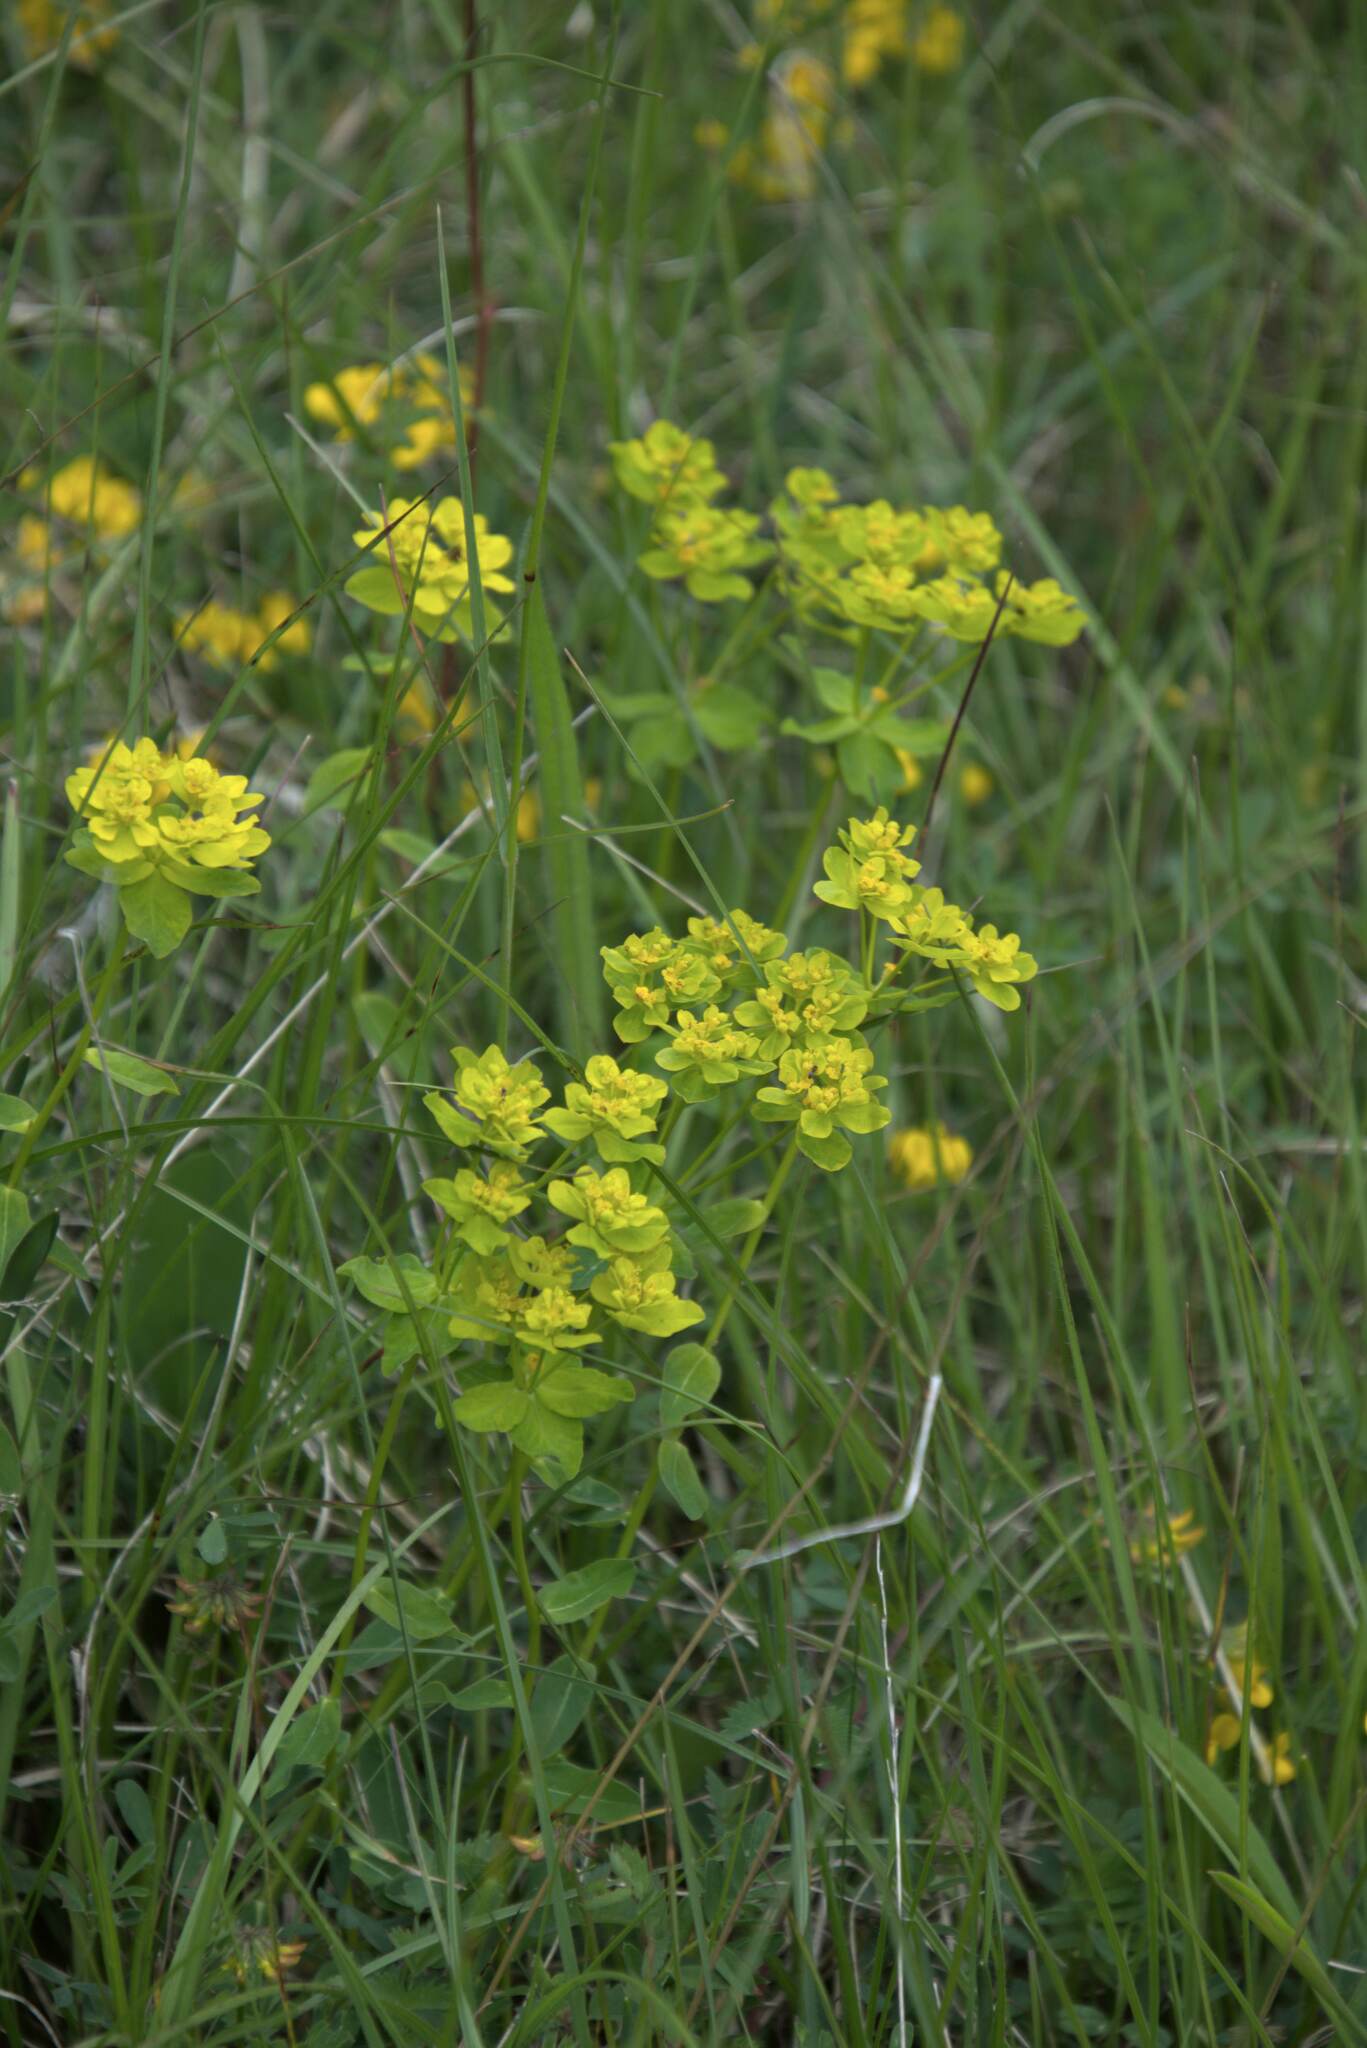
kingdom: Plantae
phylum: Tracheophyta
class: Magnoliopsida
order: Malpighiales
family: Euphorbiaceae
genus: Euphorbia
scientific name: Euphorbia verrucosa
